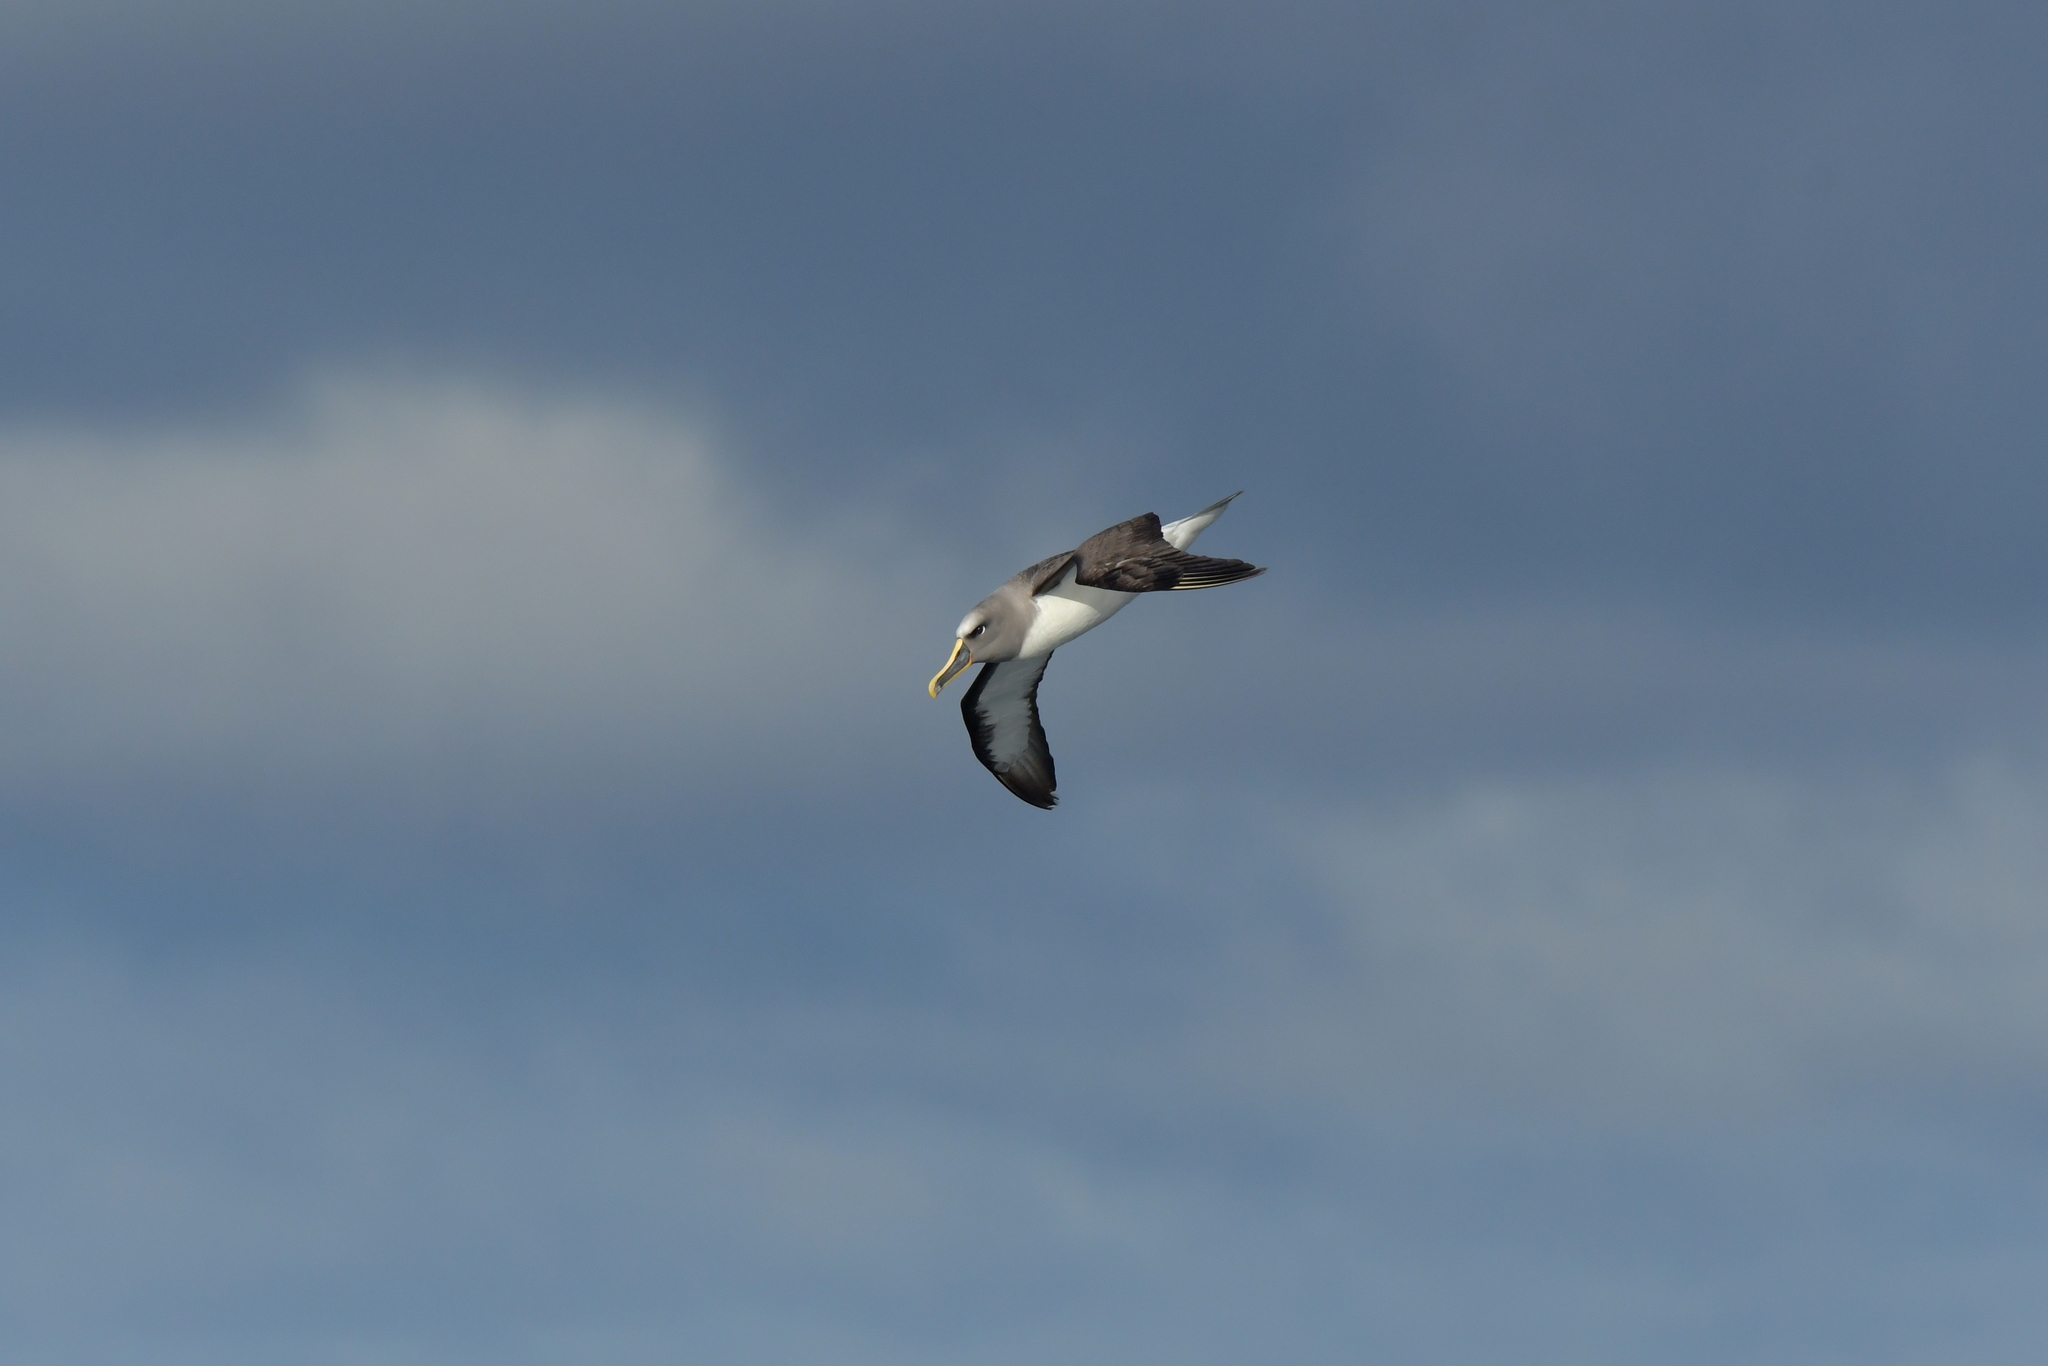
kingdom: Animalia
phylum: Chordata
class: Aves
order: Procellariiformes
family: Diomedeidae
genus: Thalassarche
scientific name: Thalassarche bulleri
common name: Buller's albatross
